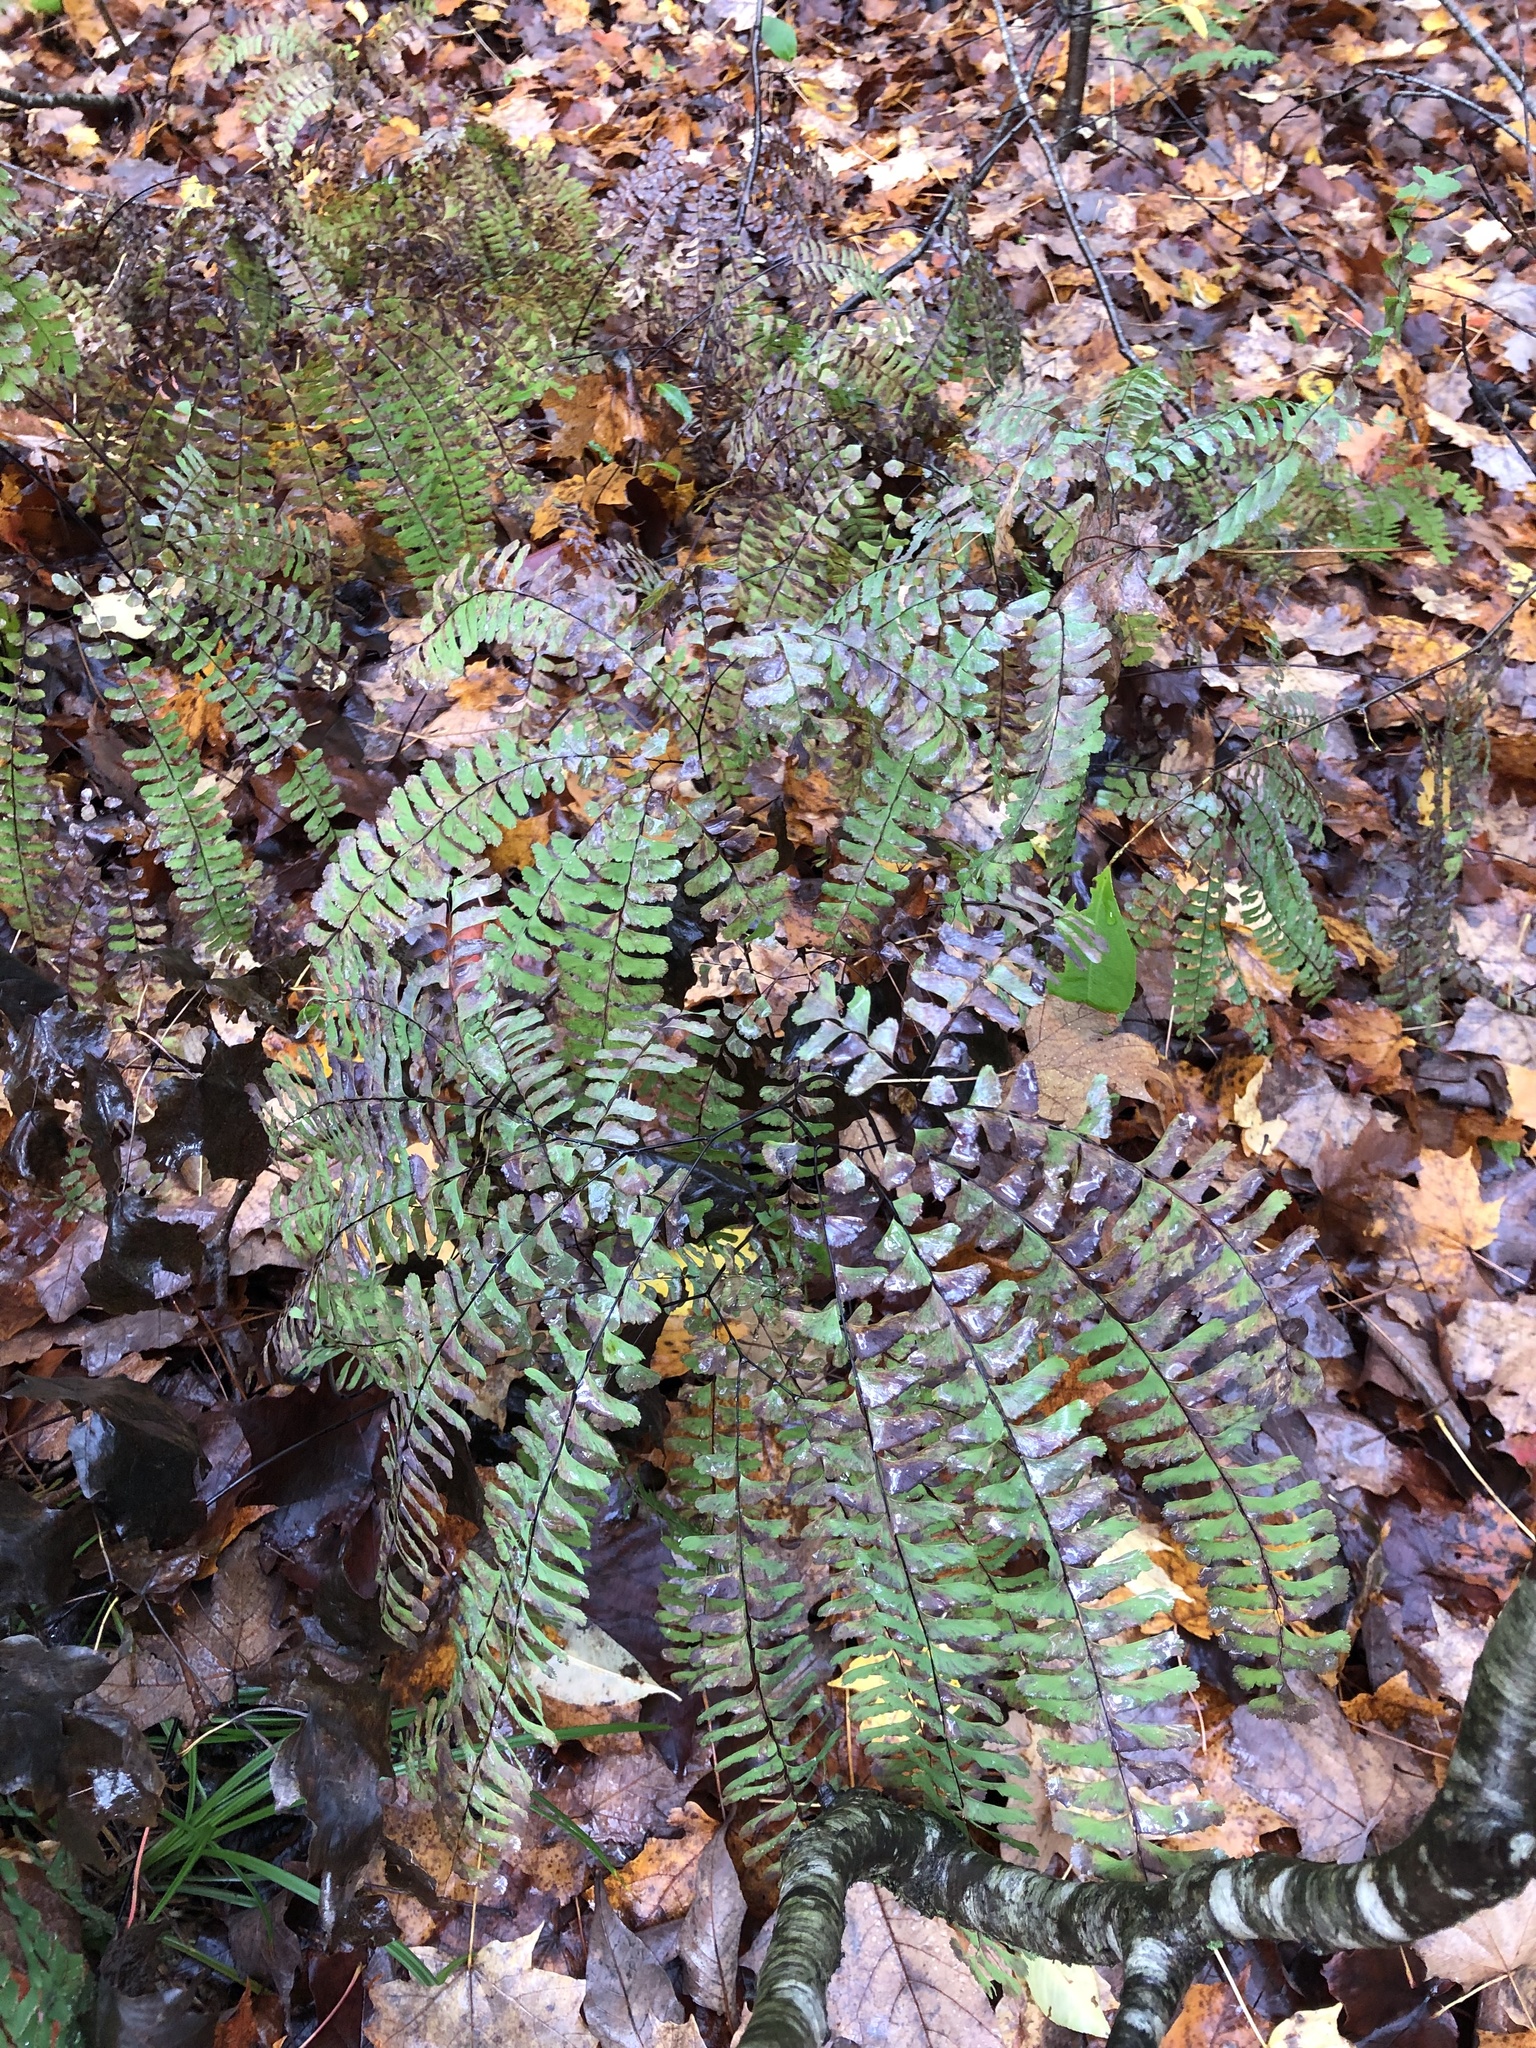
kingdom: Plantae
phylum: Tracheophyta
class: Polypodiopsida
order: Polypodiales
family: Pteridaceae
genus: Adiantum
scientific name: Adiantum pedatum
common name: Five-finger fern
